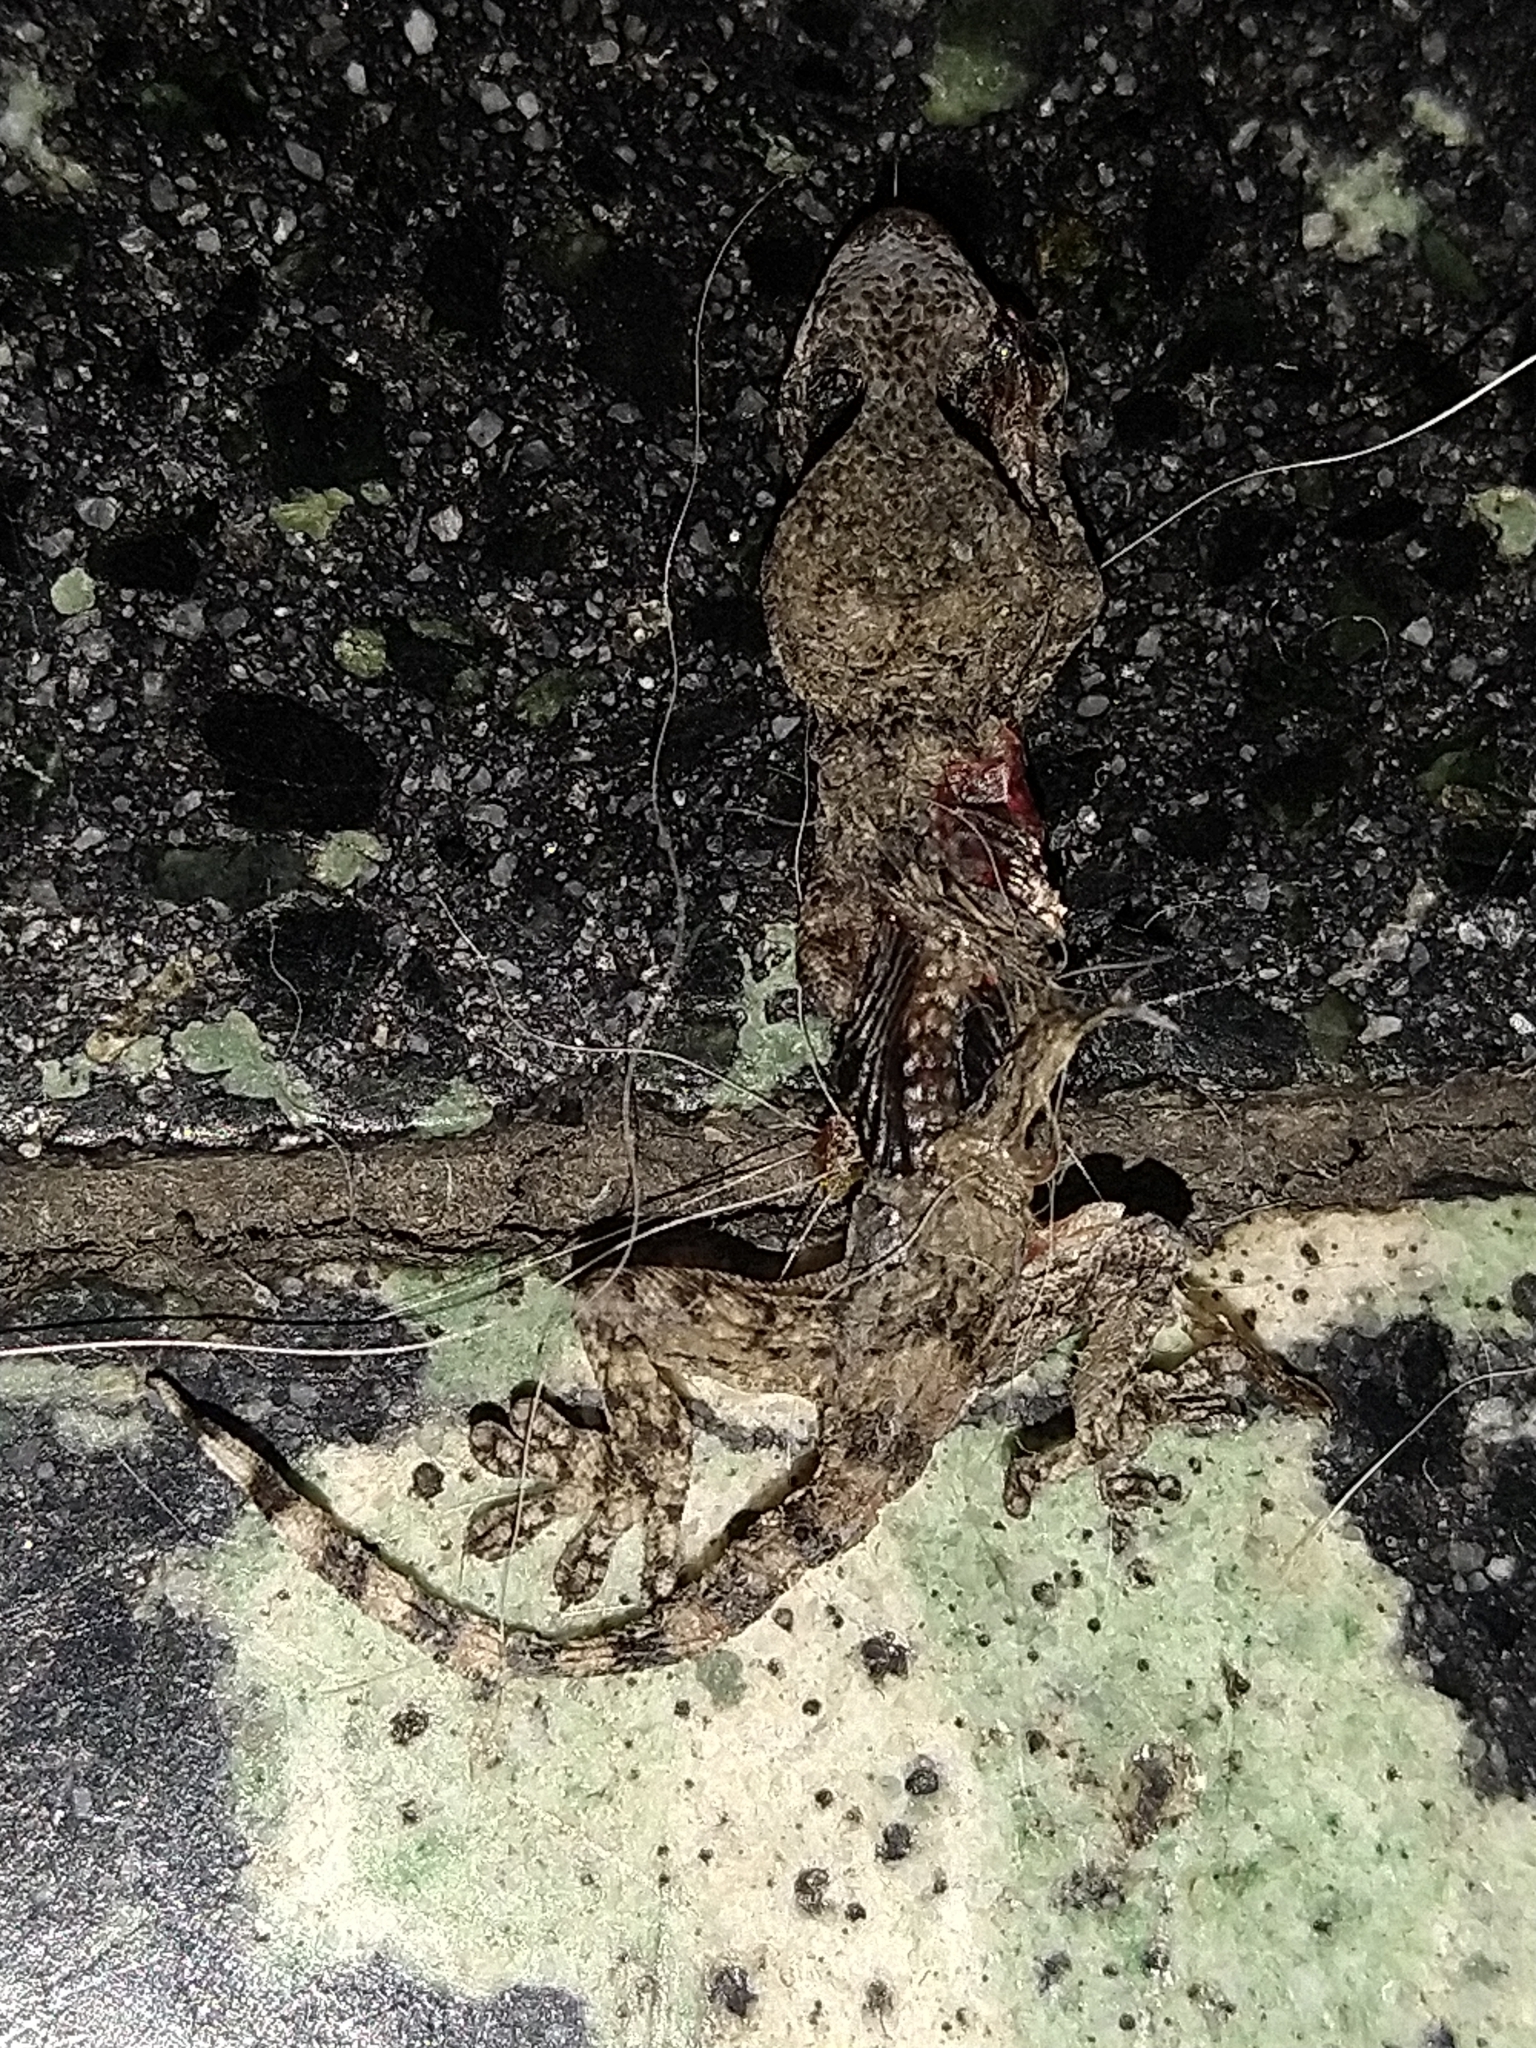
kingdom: Animalia
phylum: Chordata
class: Squamata
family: Phyllodactylidae
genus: Tarentola
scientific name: Tarentola mauritanica
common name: Moorish gecko
